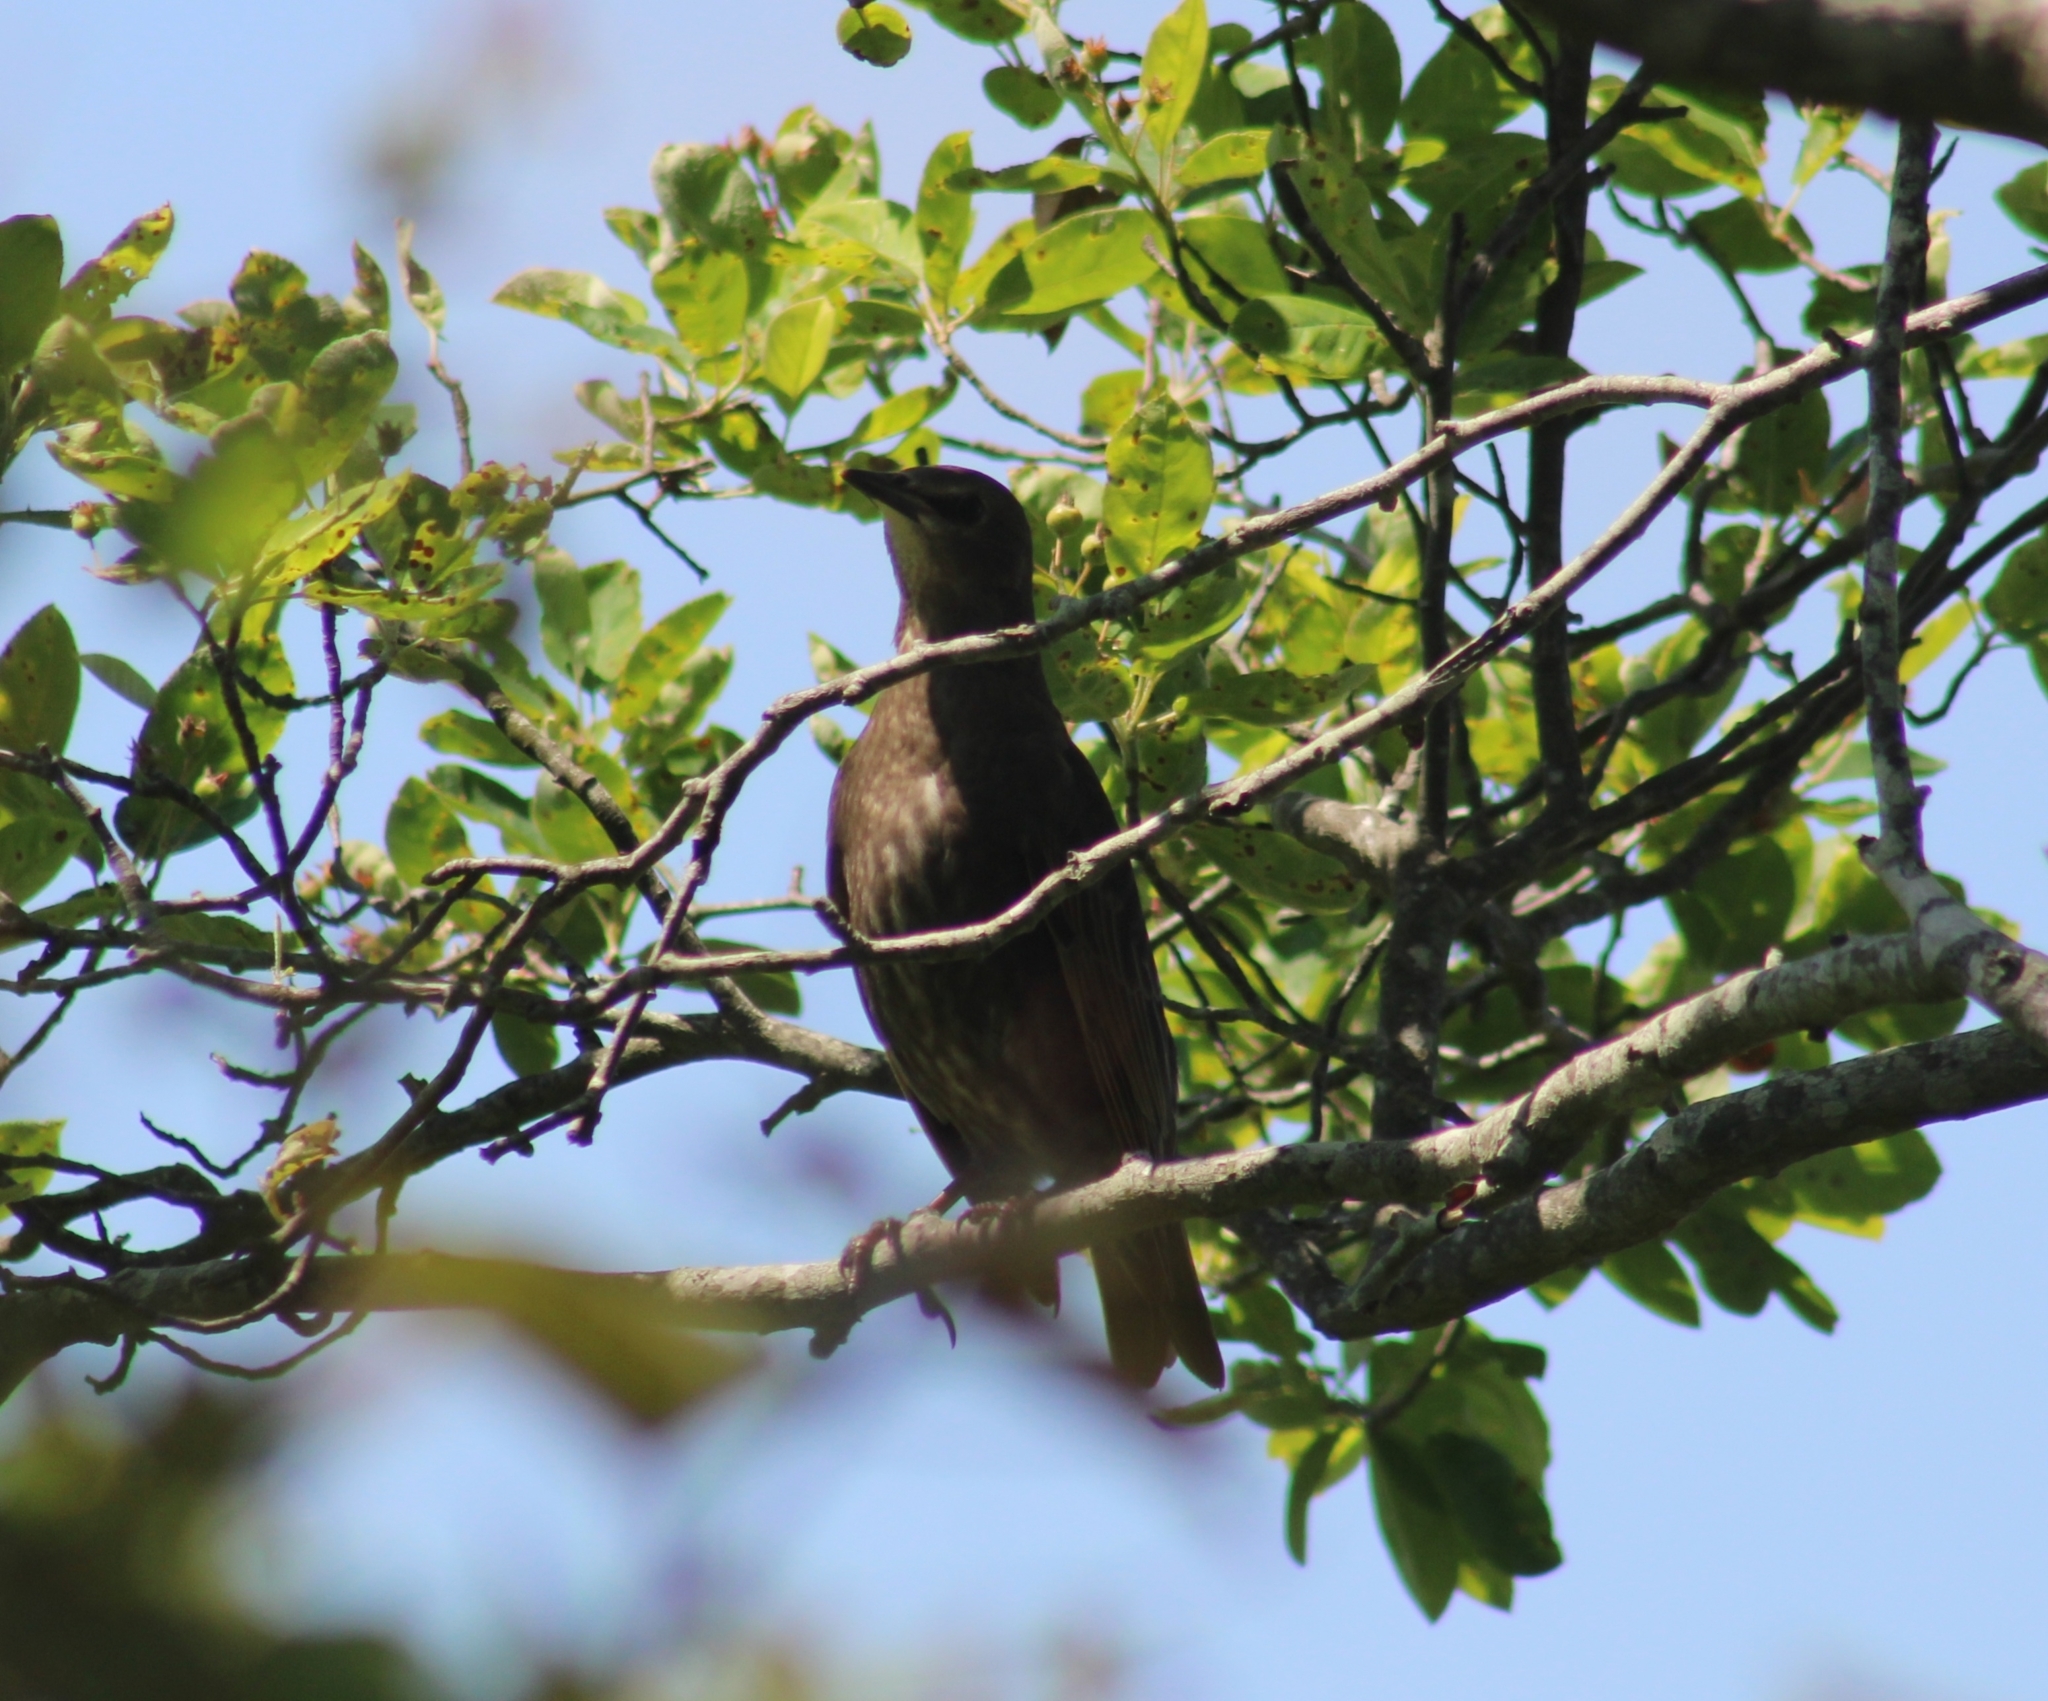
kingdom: Animalia
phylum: Chordata
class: Aves
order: Passeriformes
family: Sturnidae
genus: Sturnus
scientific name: Sturnus vulgaris
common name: Common starling
